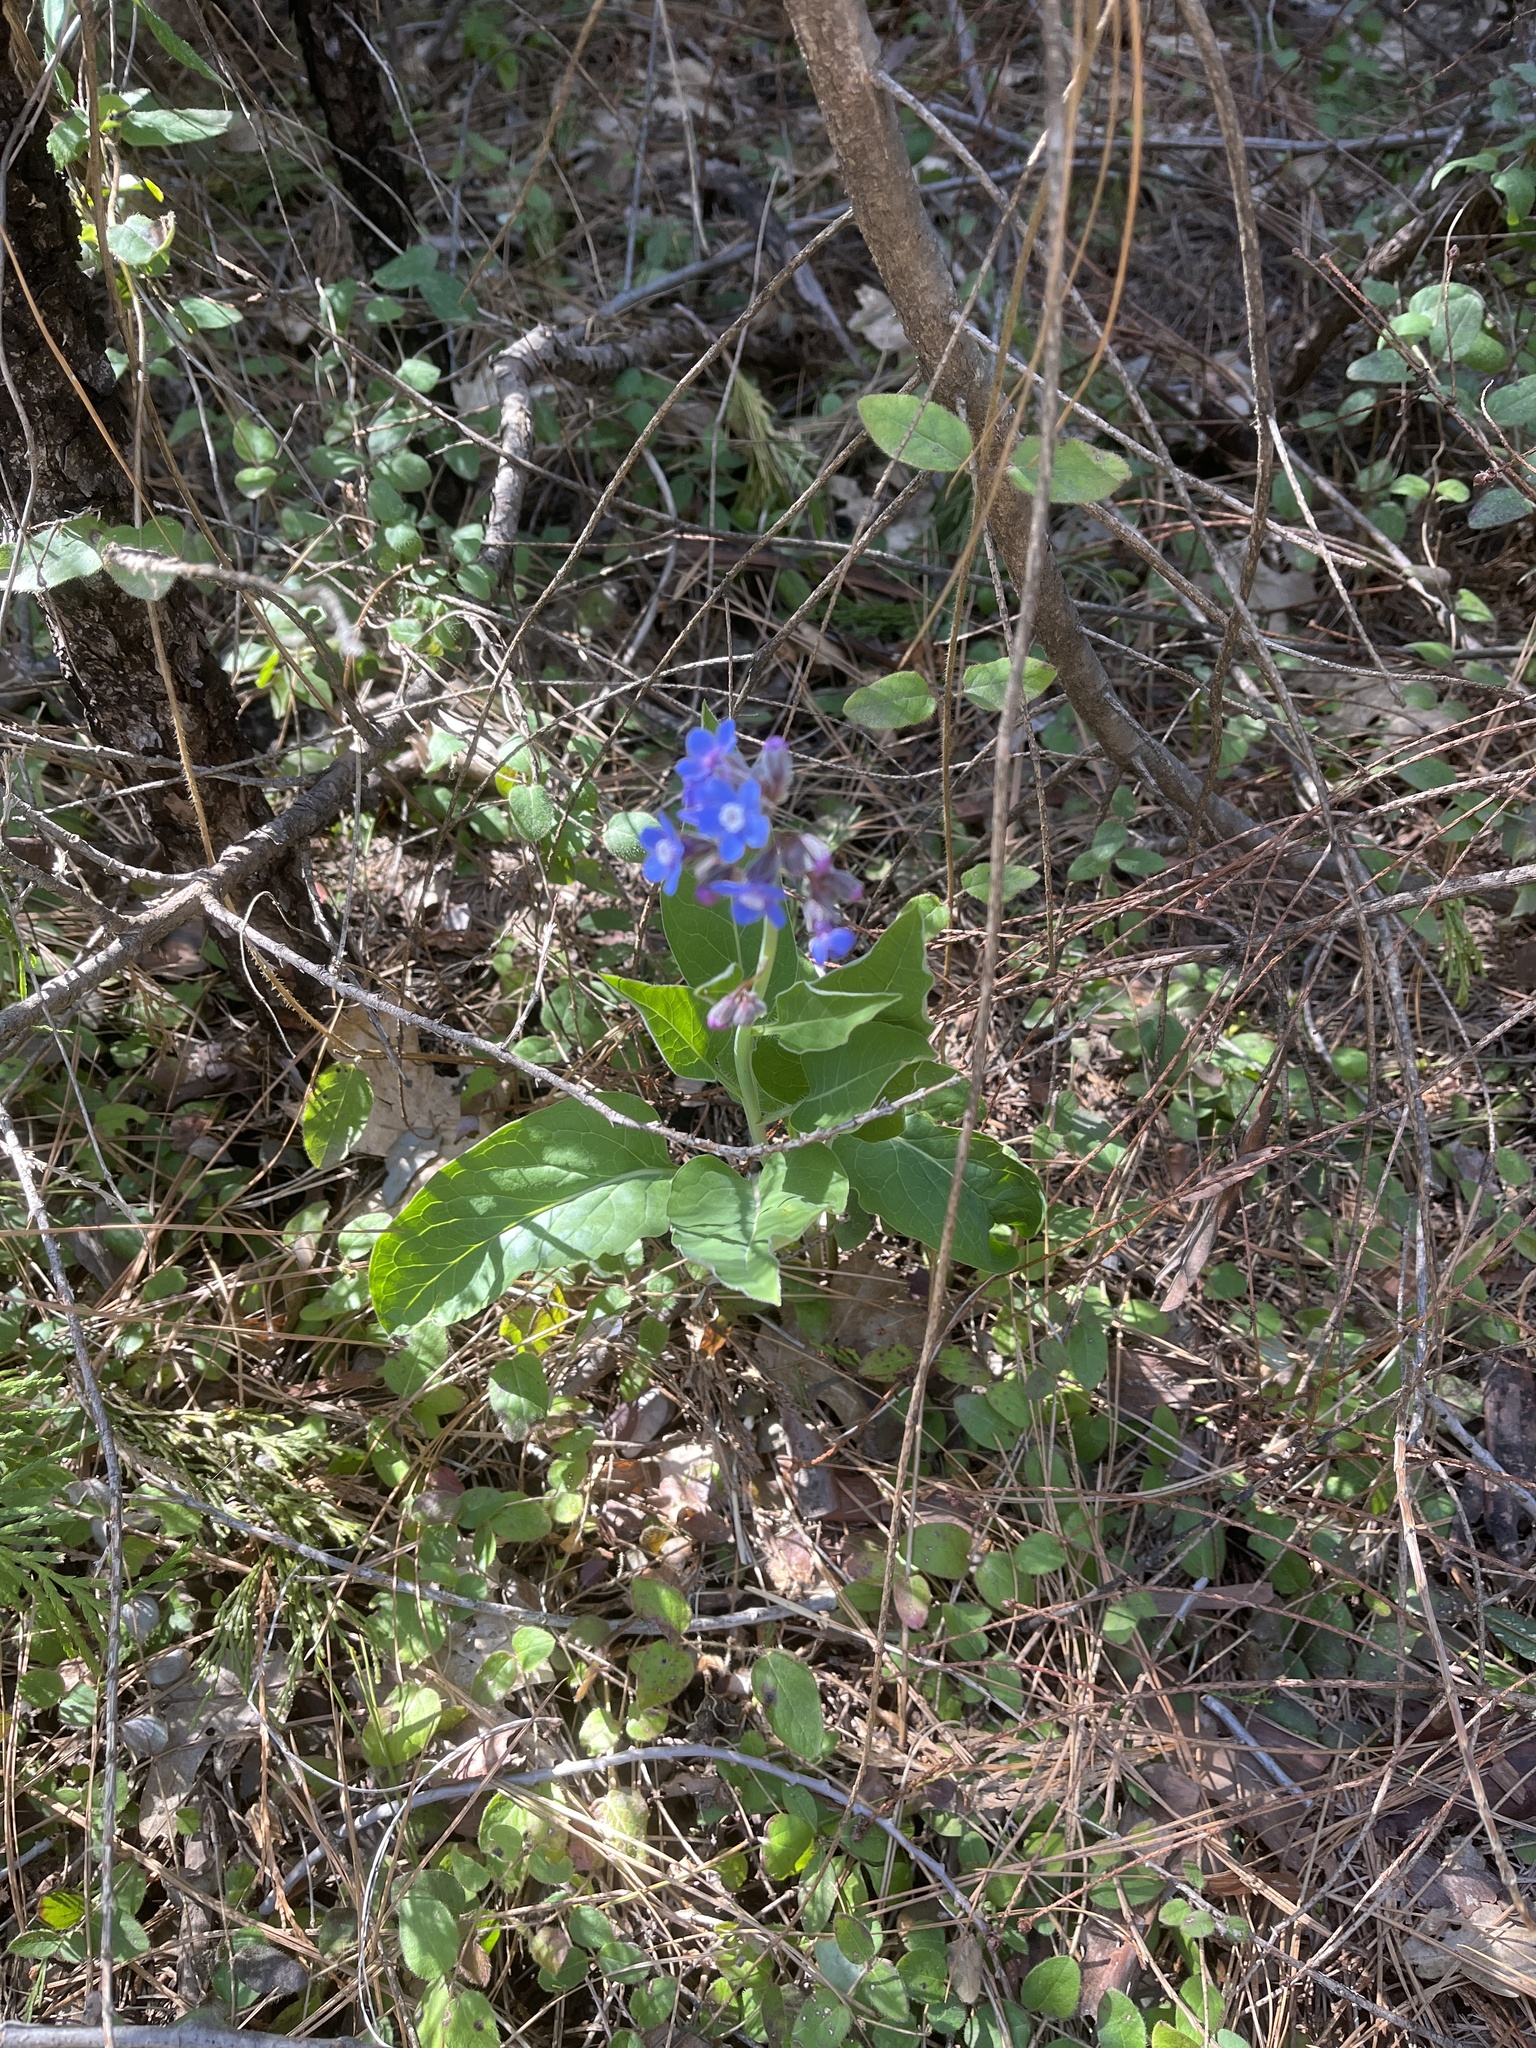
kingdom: Plantae
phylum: Tracheophyta
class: Magnoliopsida
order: Boraginales
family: Boraginaceae
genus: Adelinia
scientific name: Adelinia grande
